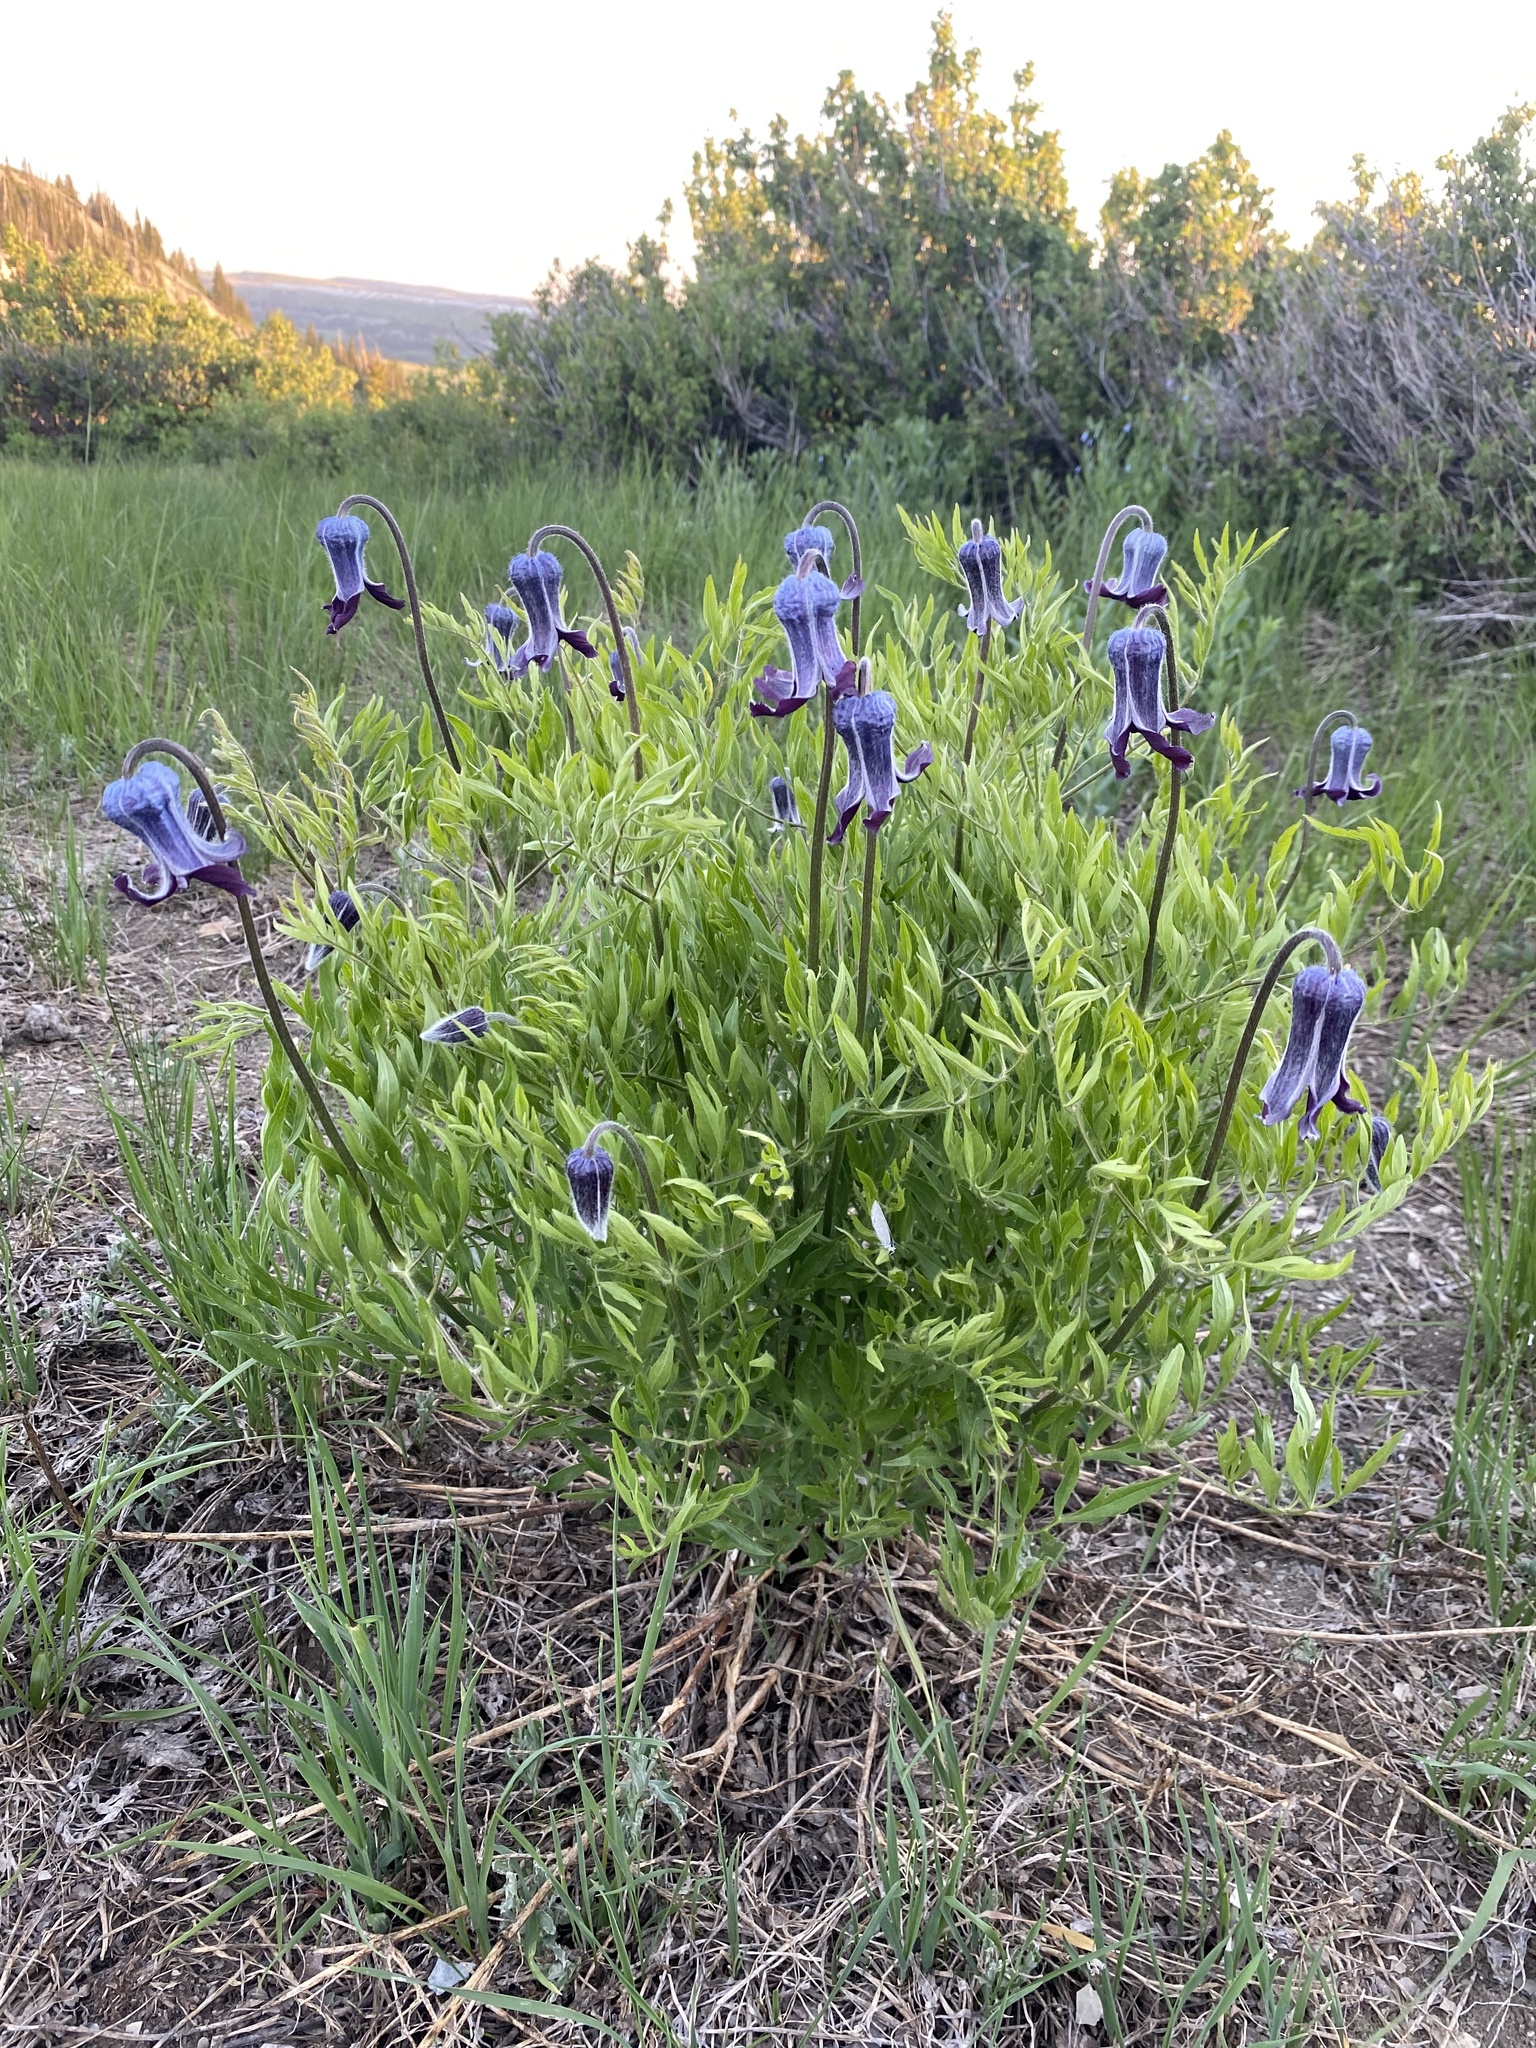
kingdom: Plantae
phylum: Tracheophyta
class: Magnoliopsida
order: Ranunculales
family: Ranunculaceae
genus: Clematis
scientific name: Clematis hirsutissima
